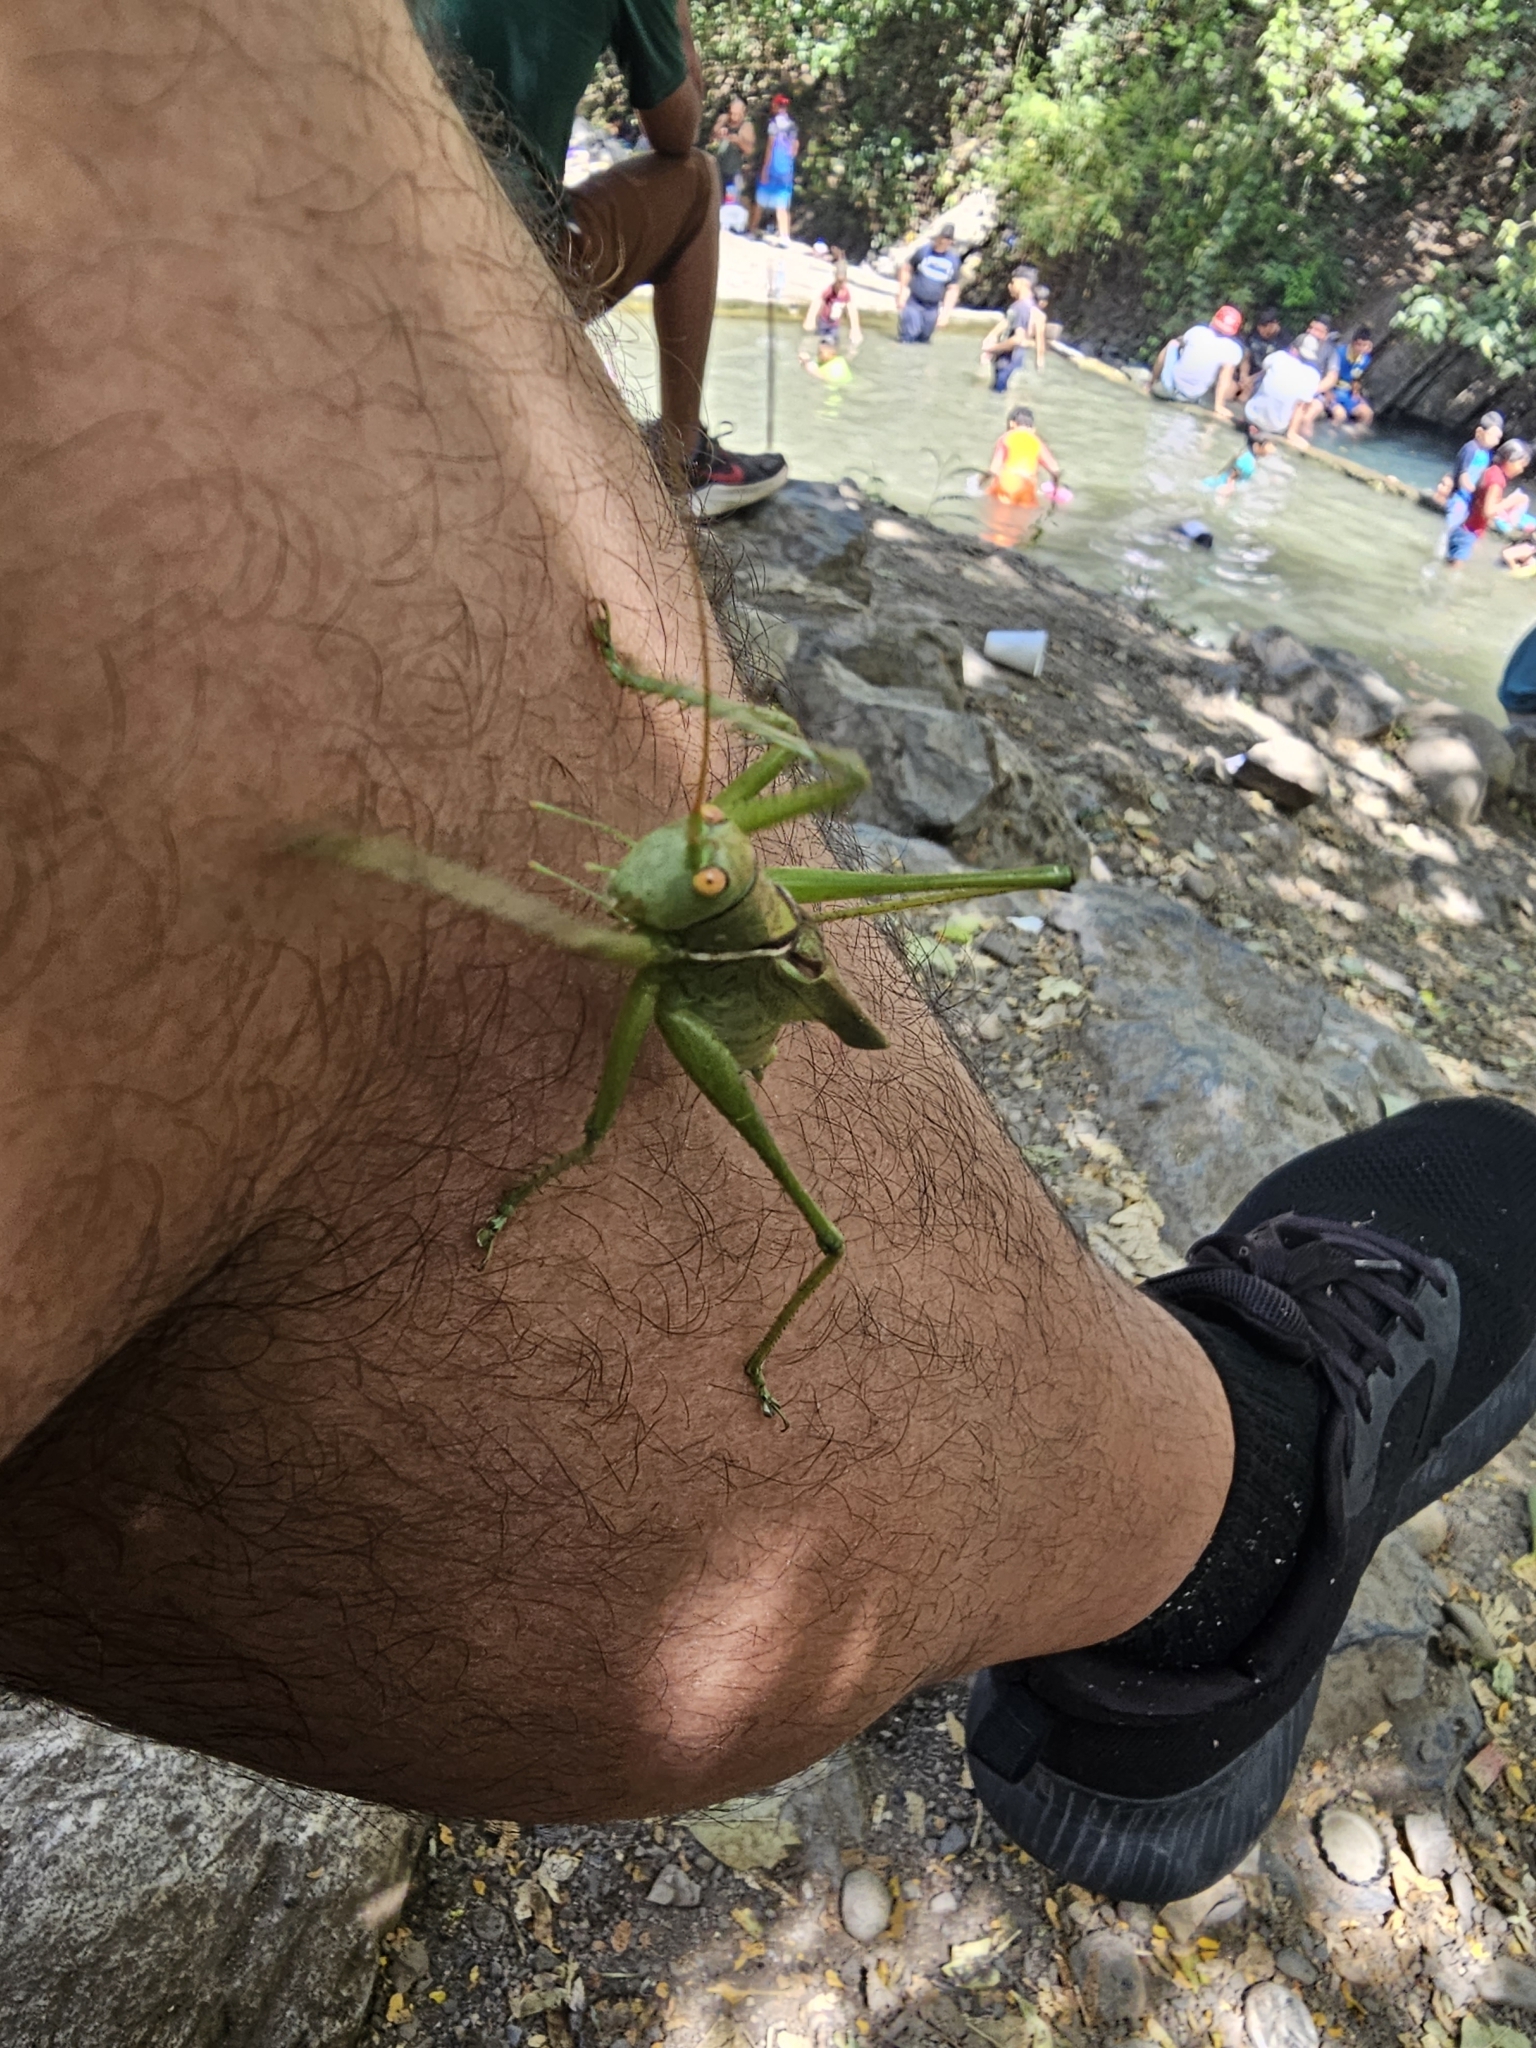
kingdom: Animalia
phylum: Arthropoda
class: Insecta
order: Orthoptera
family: Tettigoniidae
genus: Neobarrettia
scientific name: Neobarrettia vannifera
